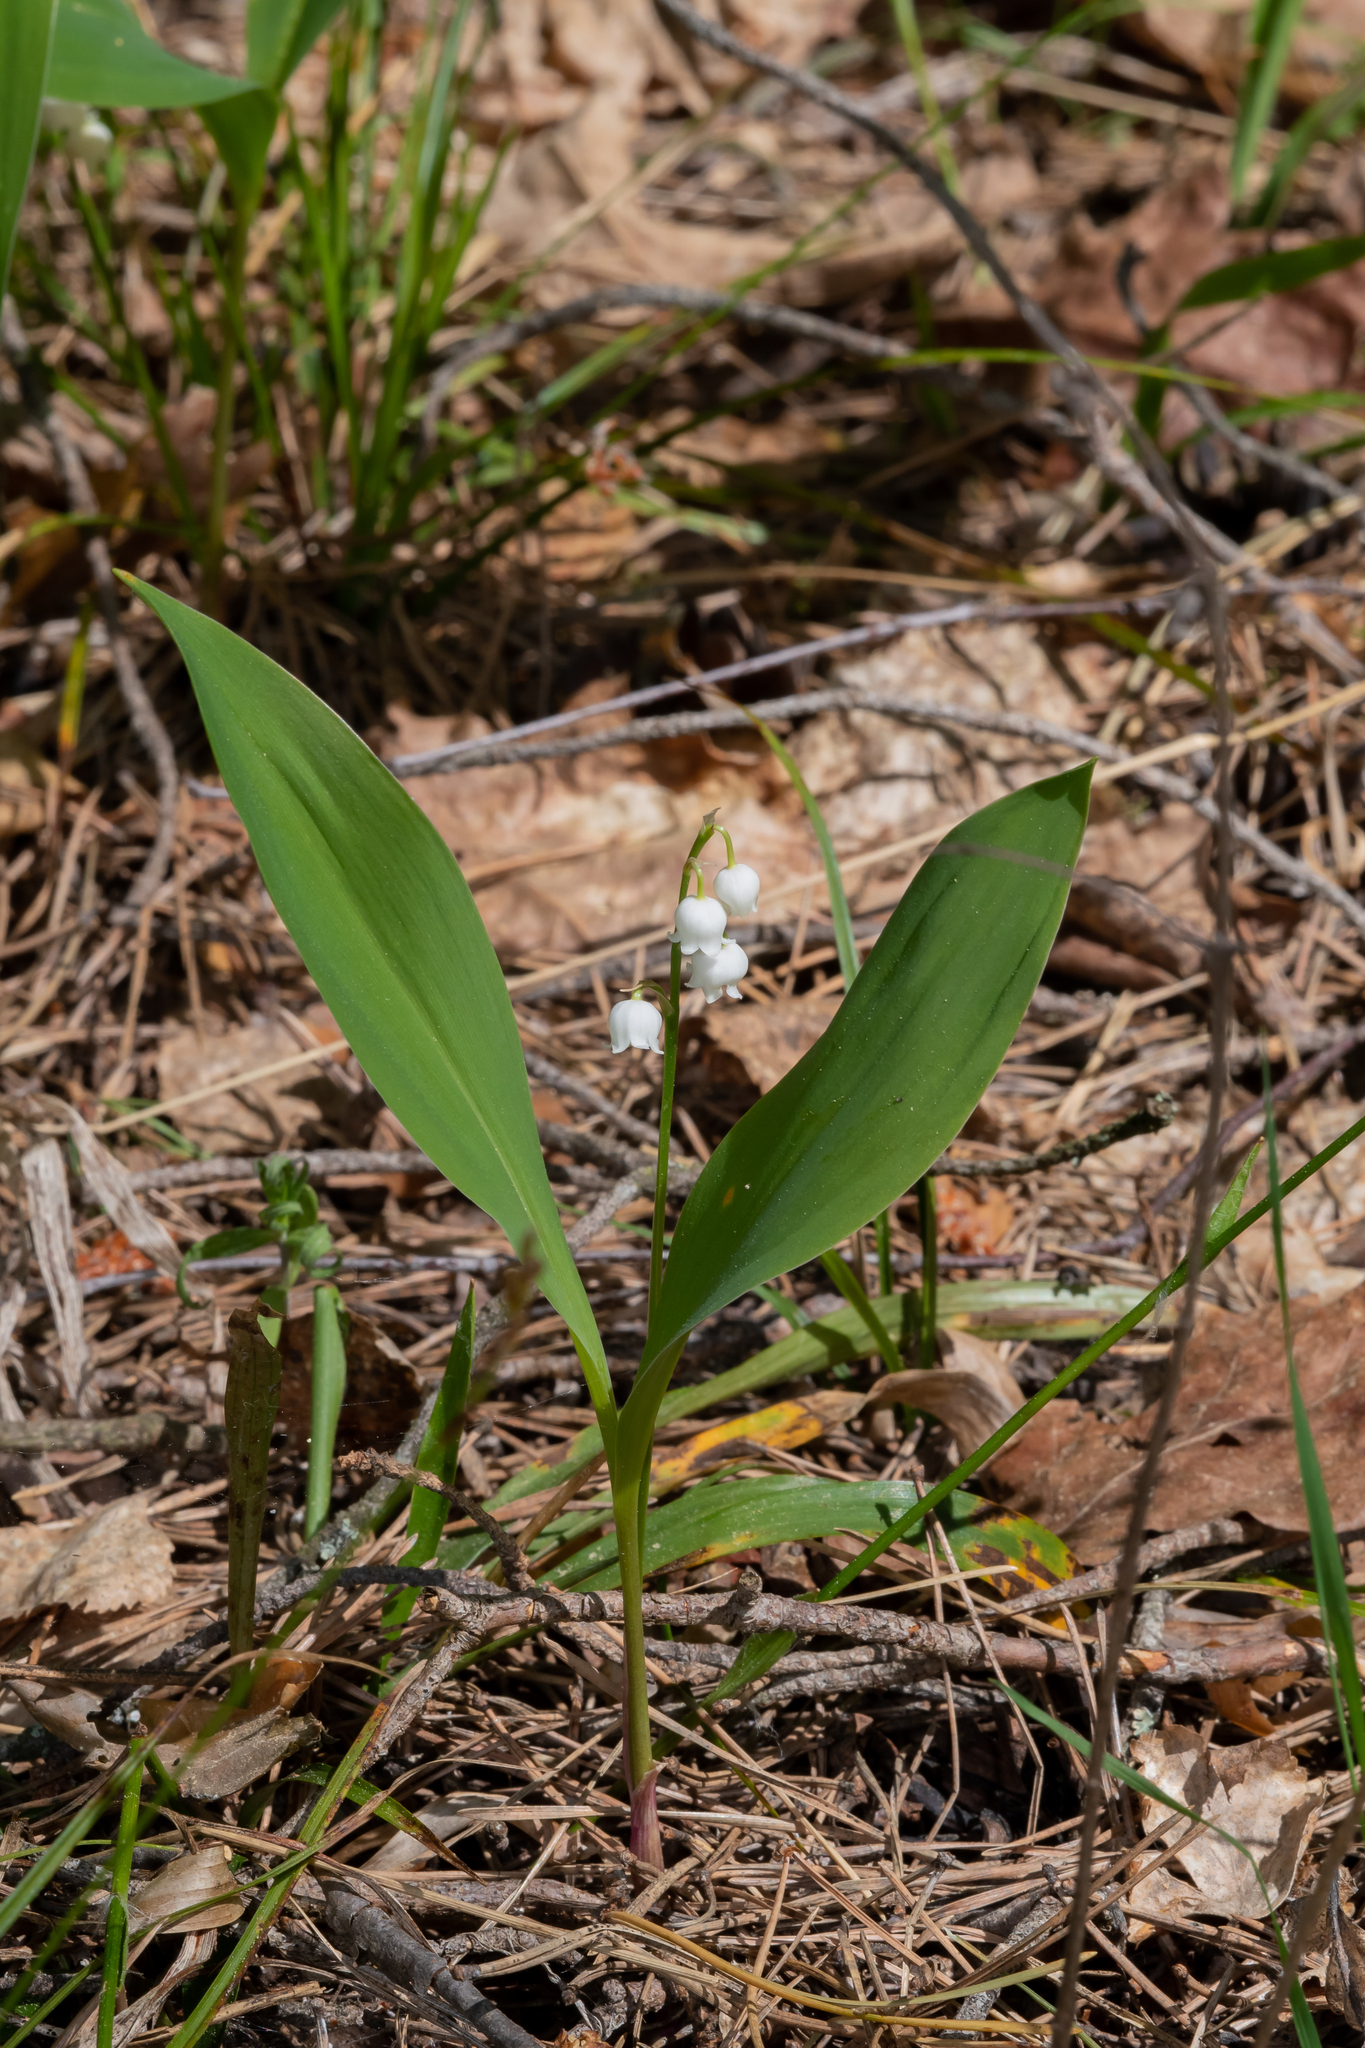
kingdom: Plantae
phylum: Tracheophyta
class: Liliopsida
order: Asparagales
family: Asparagaceae
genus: Convallaria
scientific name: Convallaria majalis
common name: Lily-of-the-valley
